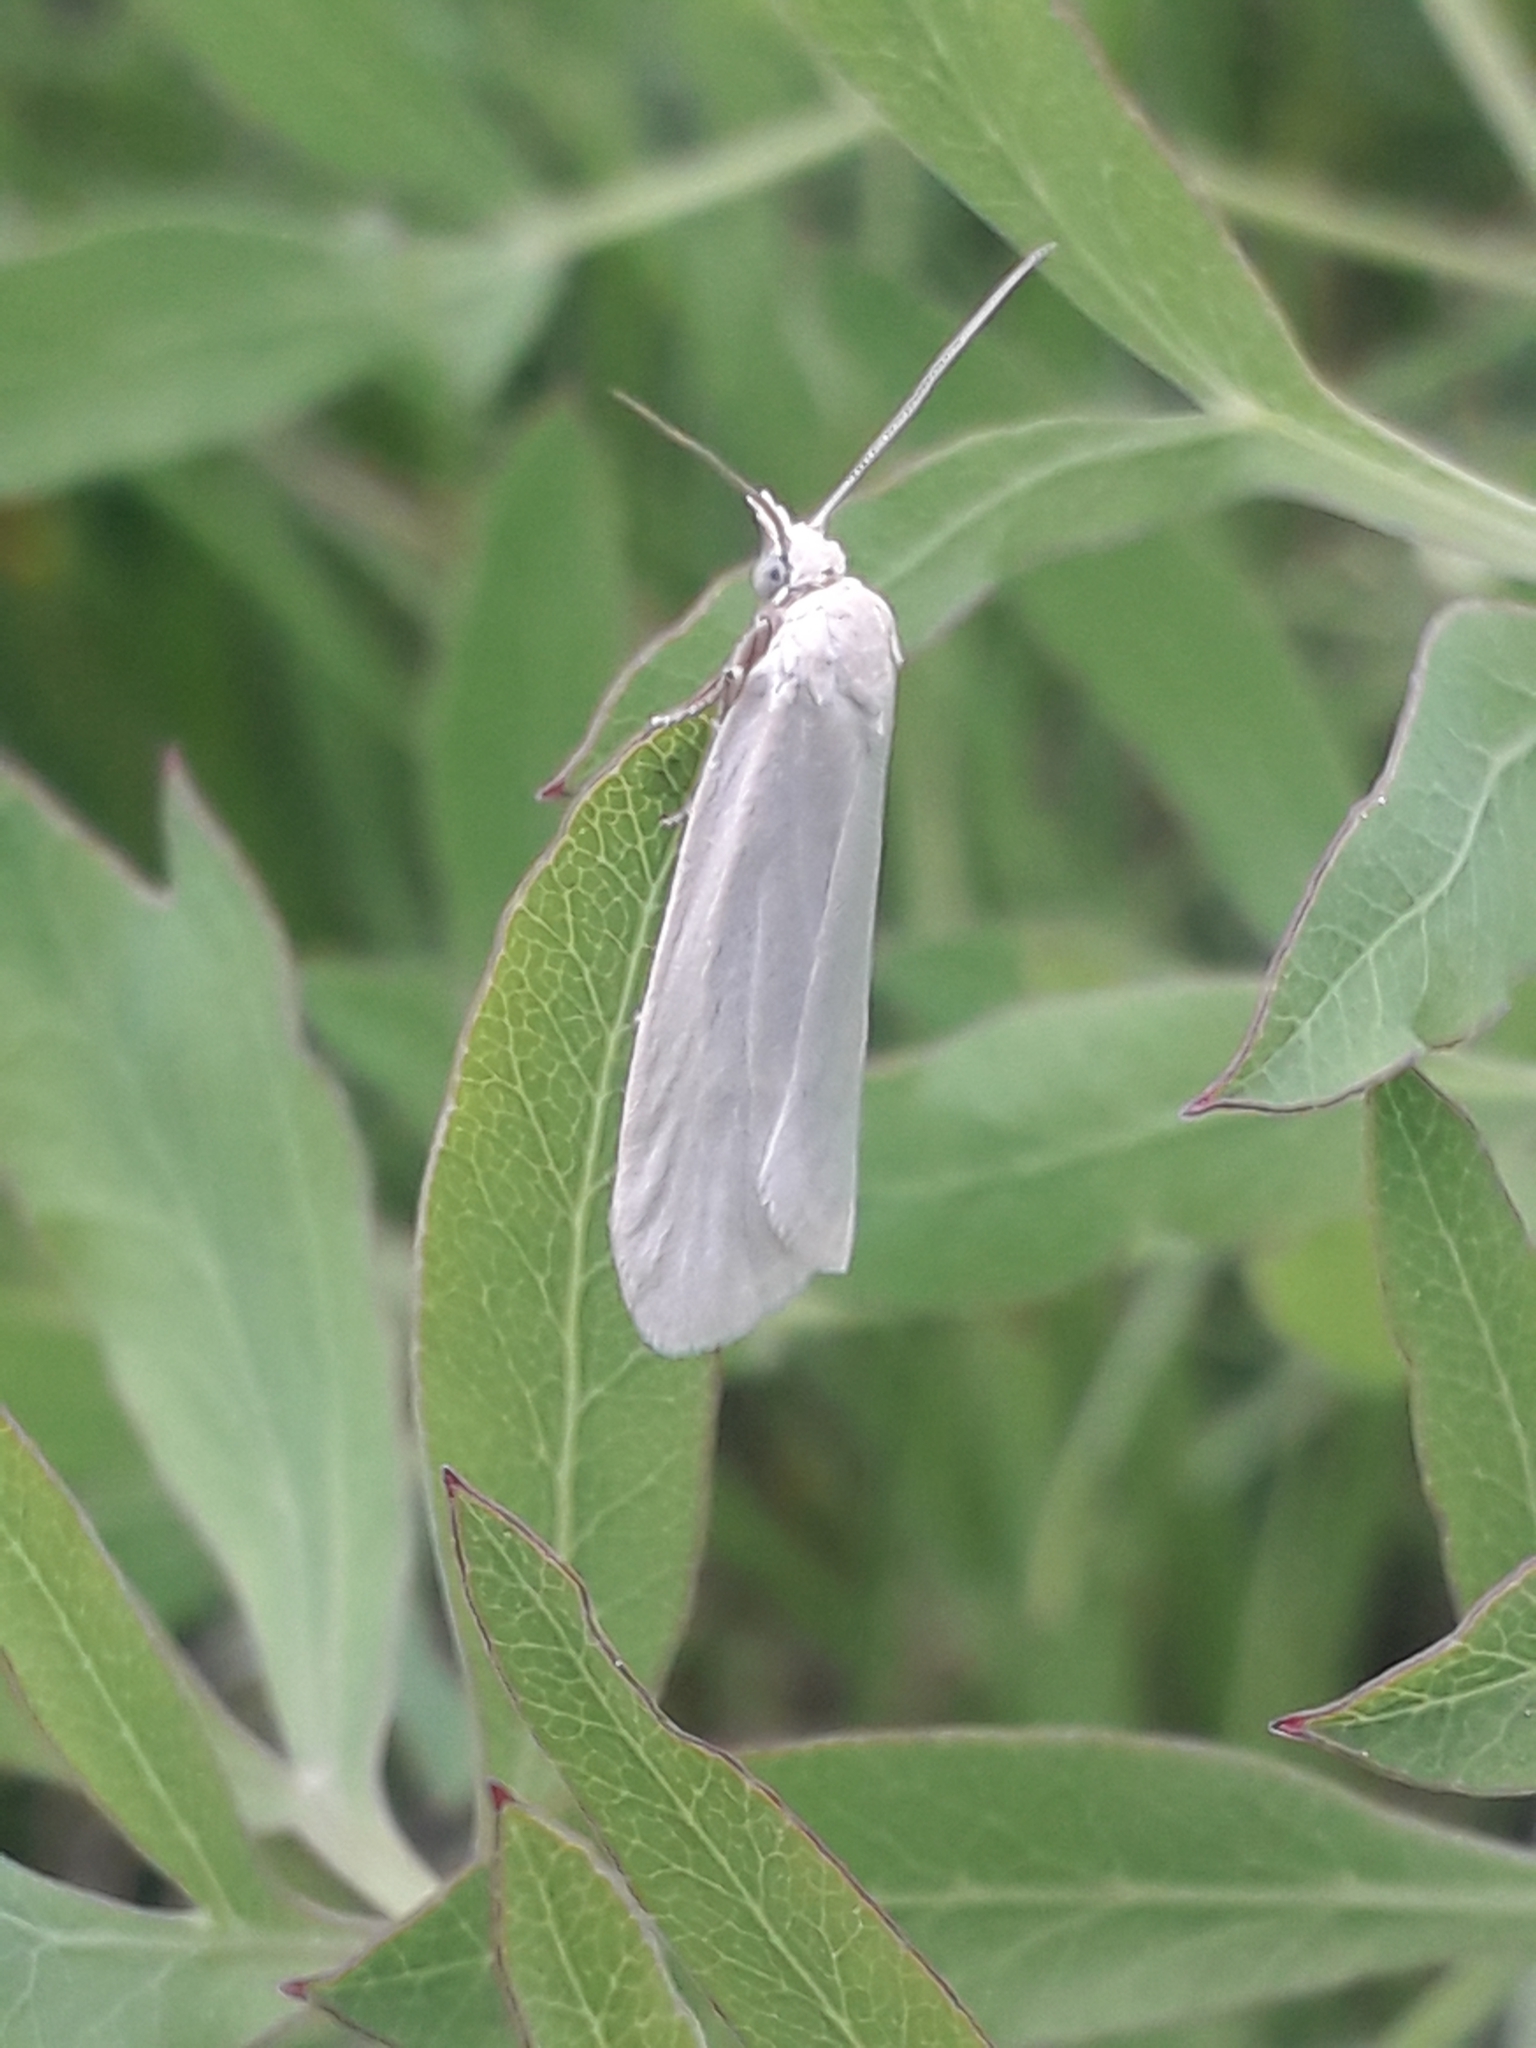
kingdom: Animalia
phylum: Arthropoda
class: Insecta
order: Lepidoptera
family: Tortricidae
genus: Eana
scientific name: Eana argentana
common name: Silver shade
